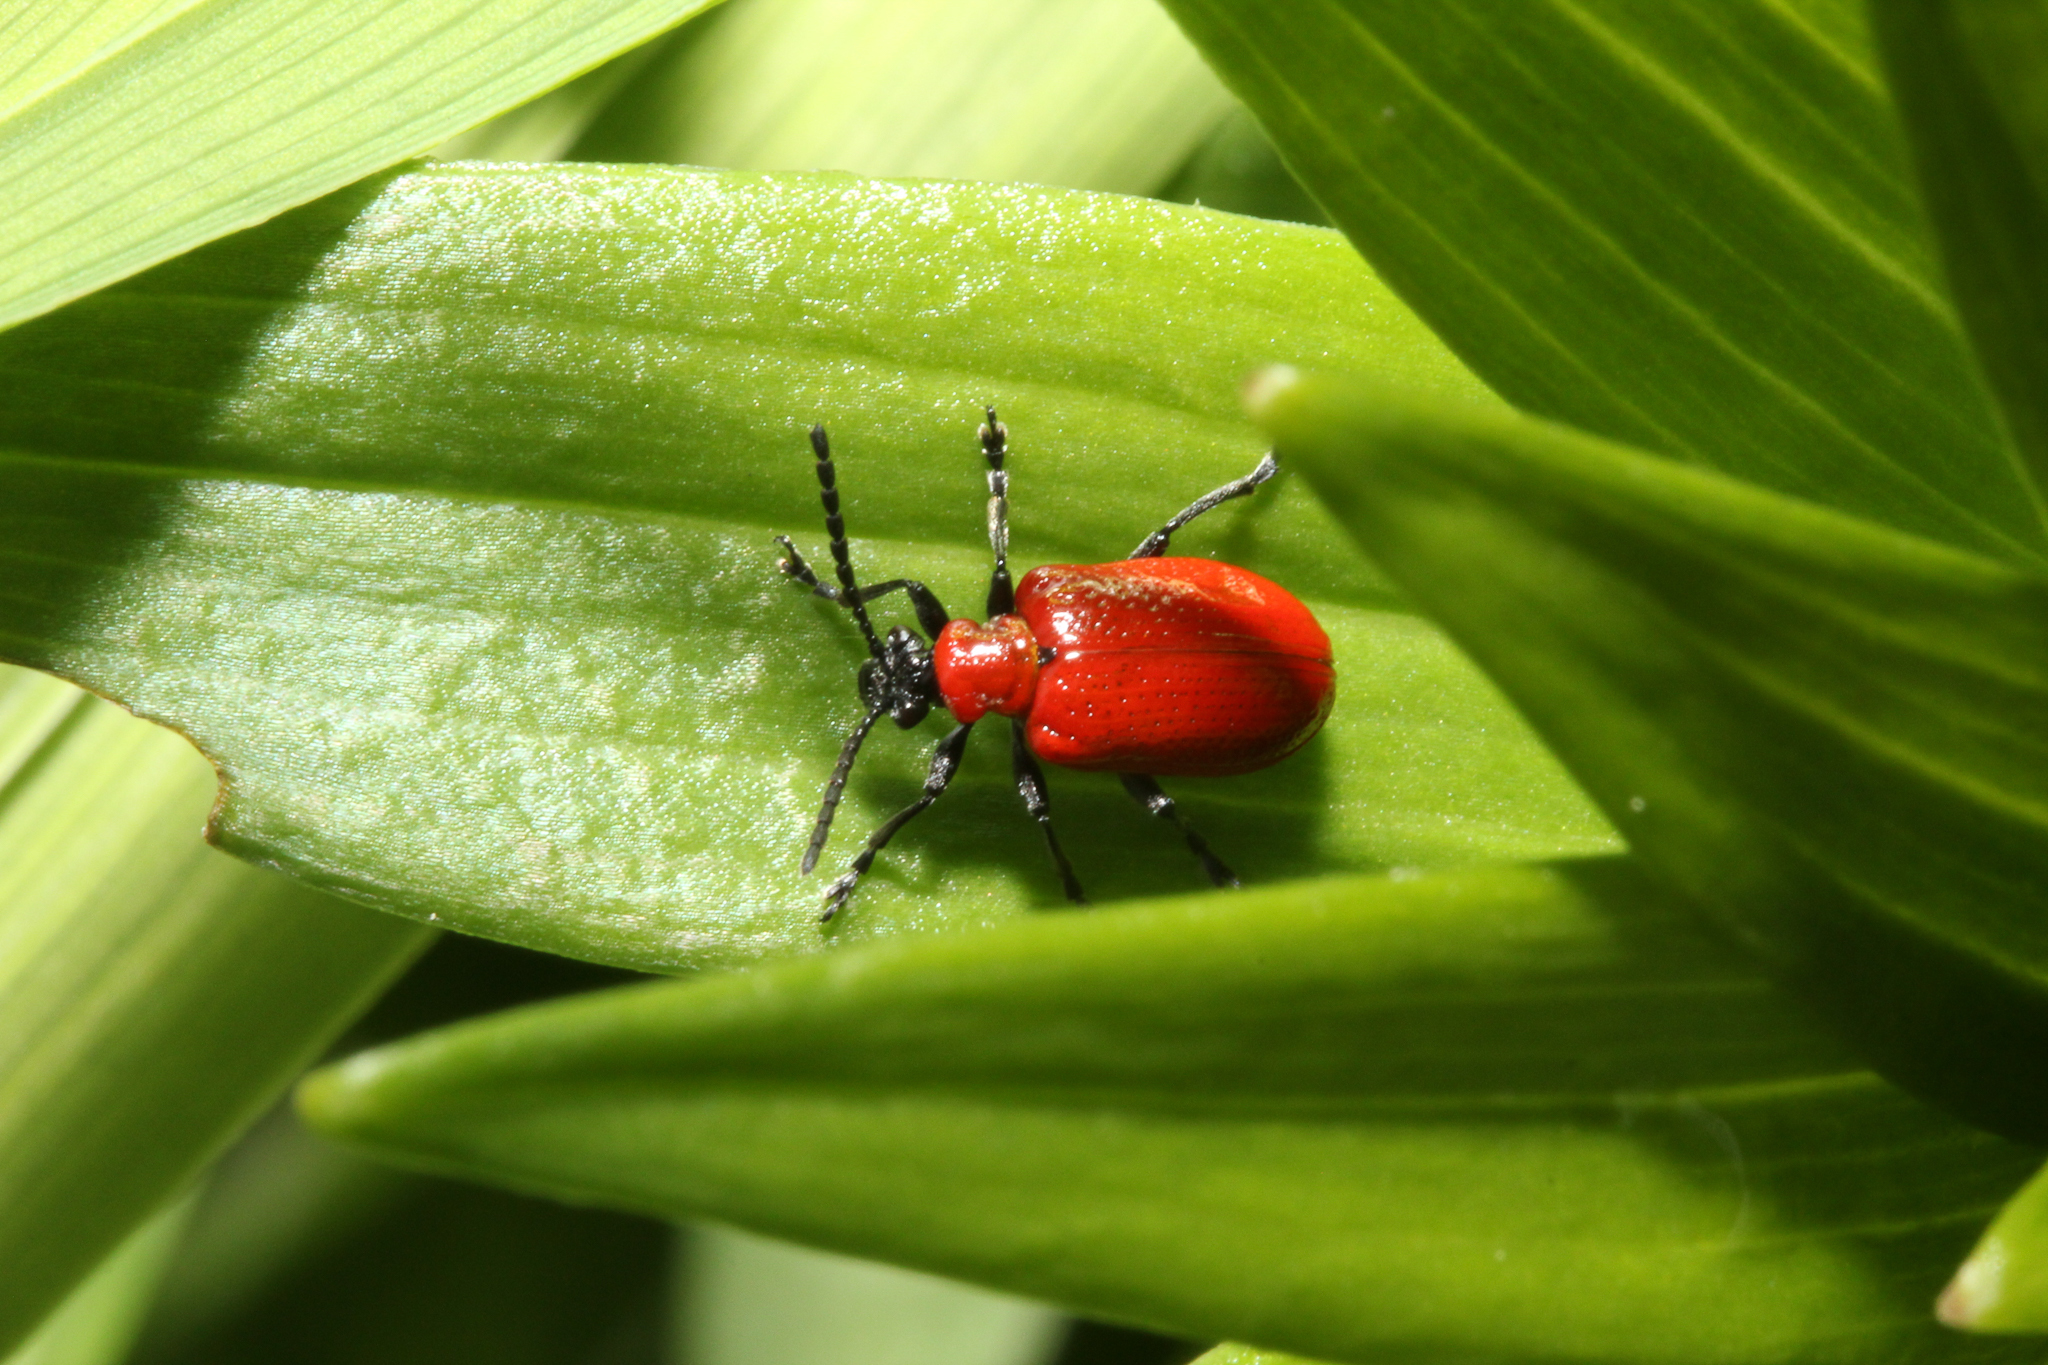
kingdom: Animalia
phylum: Arthropoda
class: Insecta
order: Coleoptera
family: Chrysomelidae
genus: Lilioceris
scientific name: Lilioceris lilii
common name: Lily beetle
